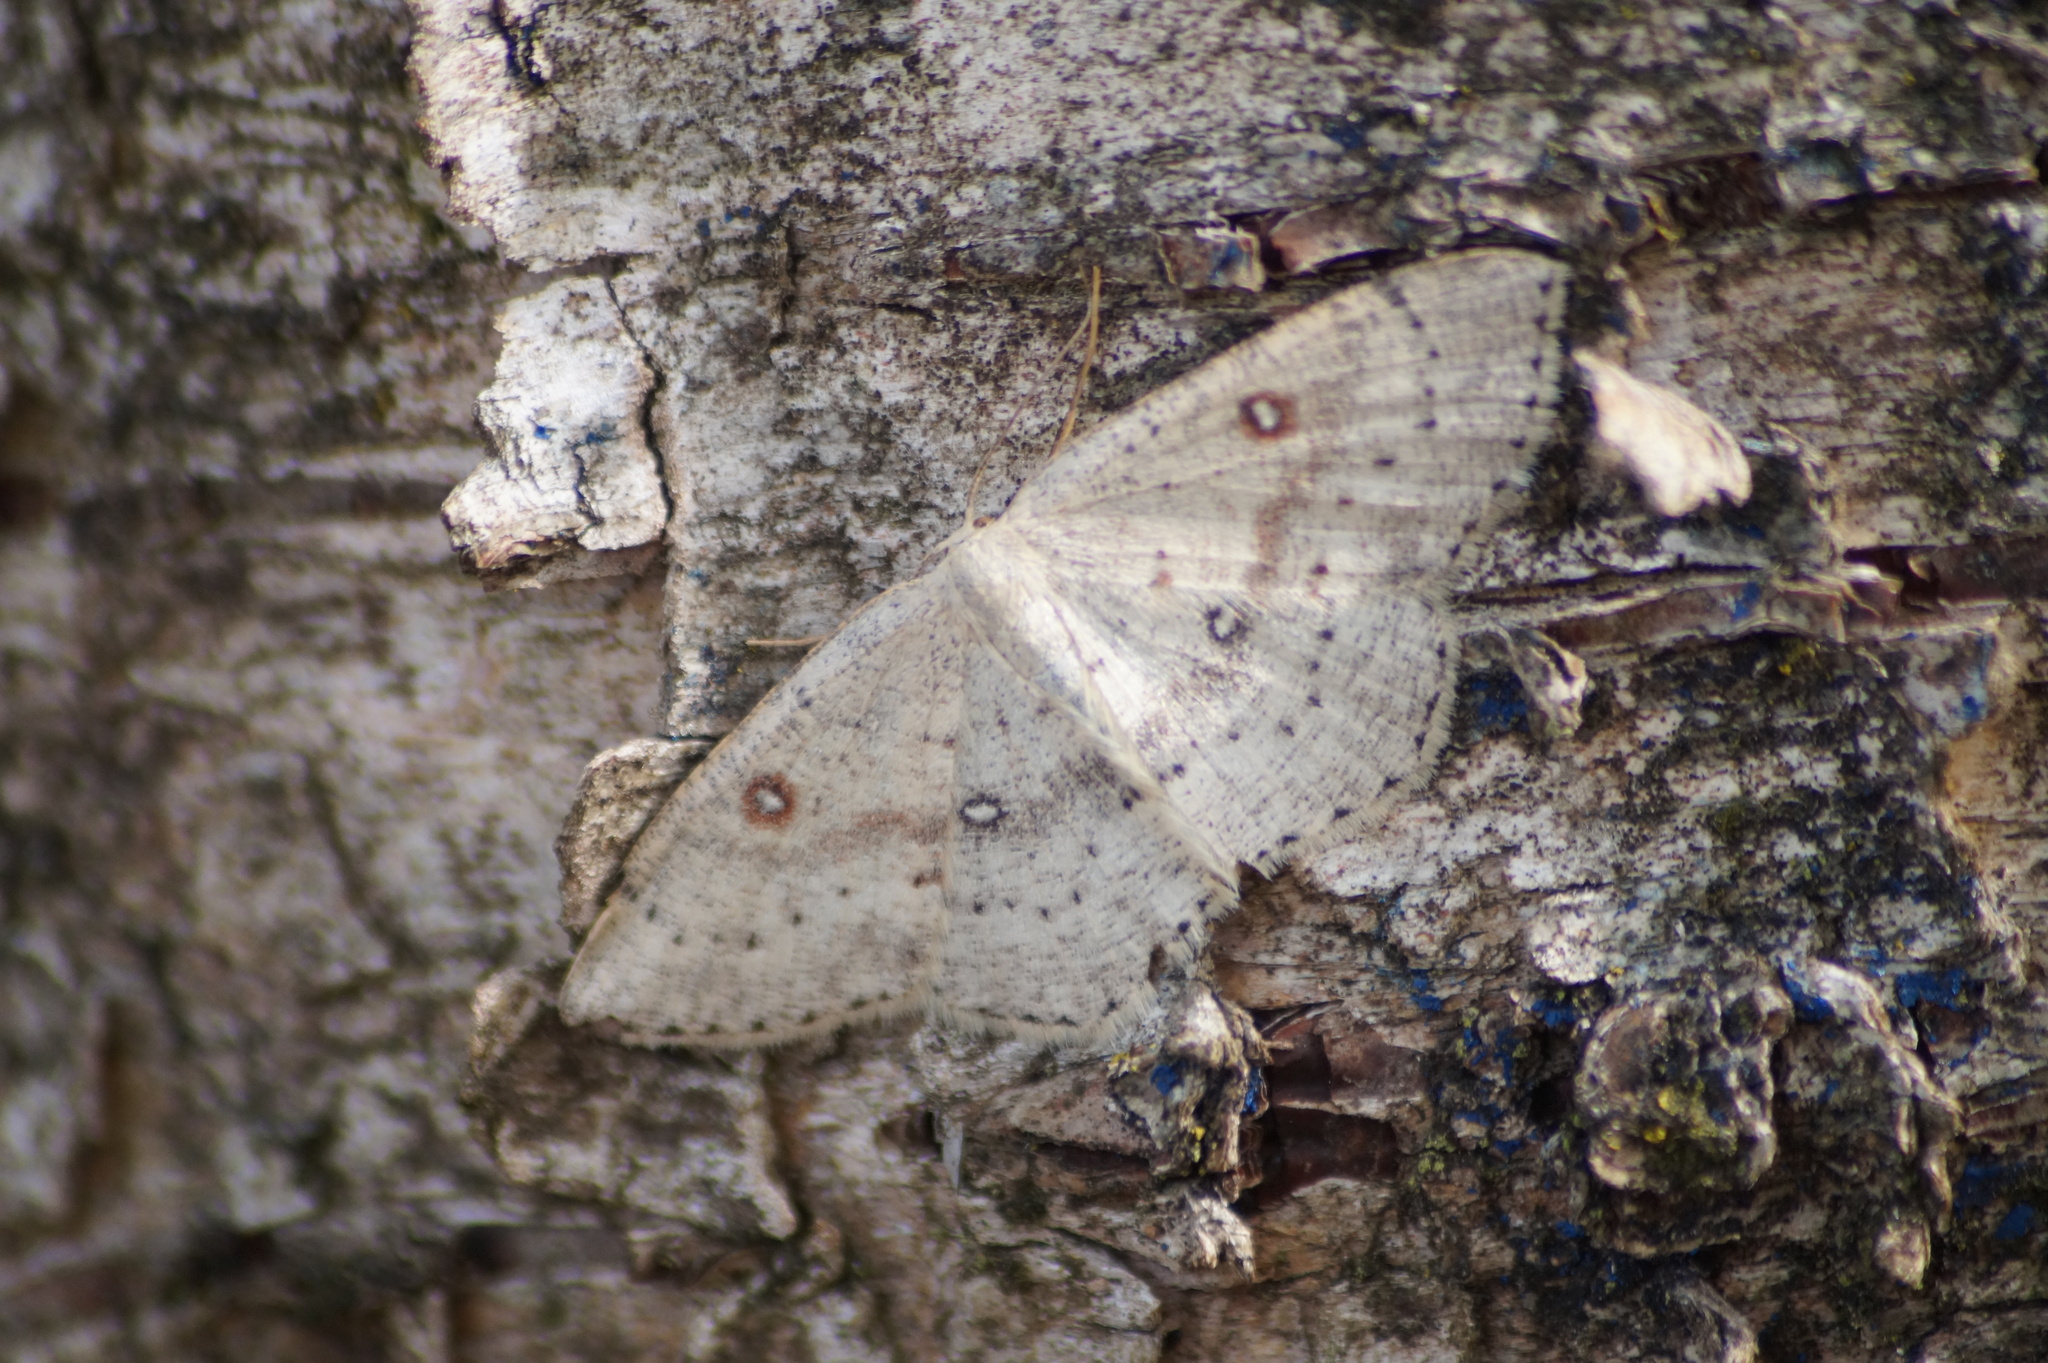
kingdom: Animalia
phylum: Arthropoda
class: Insecta
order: Lepidoptera
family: Geometridae
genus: Cyclophora
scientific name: Cyclophora albipunctata
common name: Birch mocha
